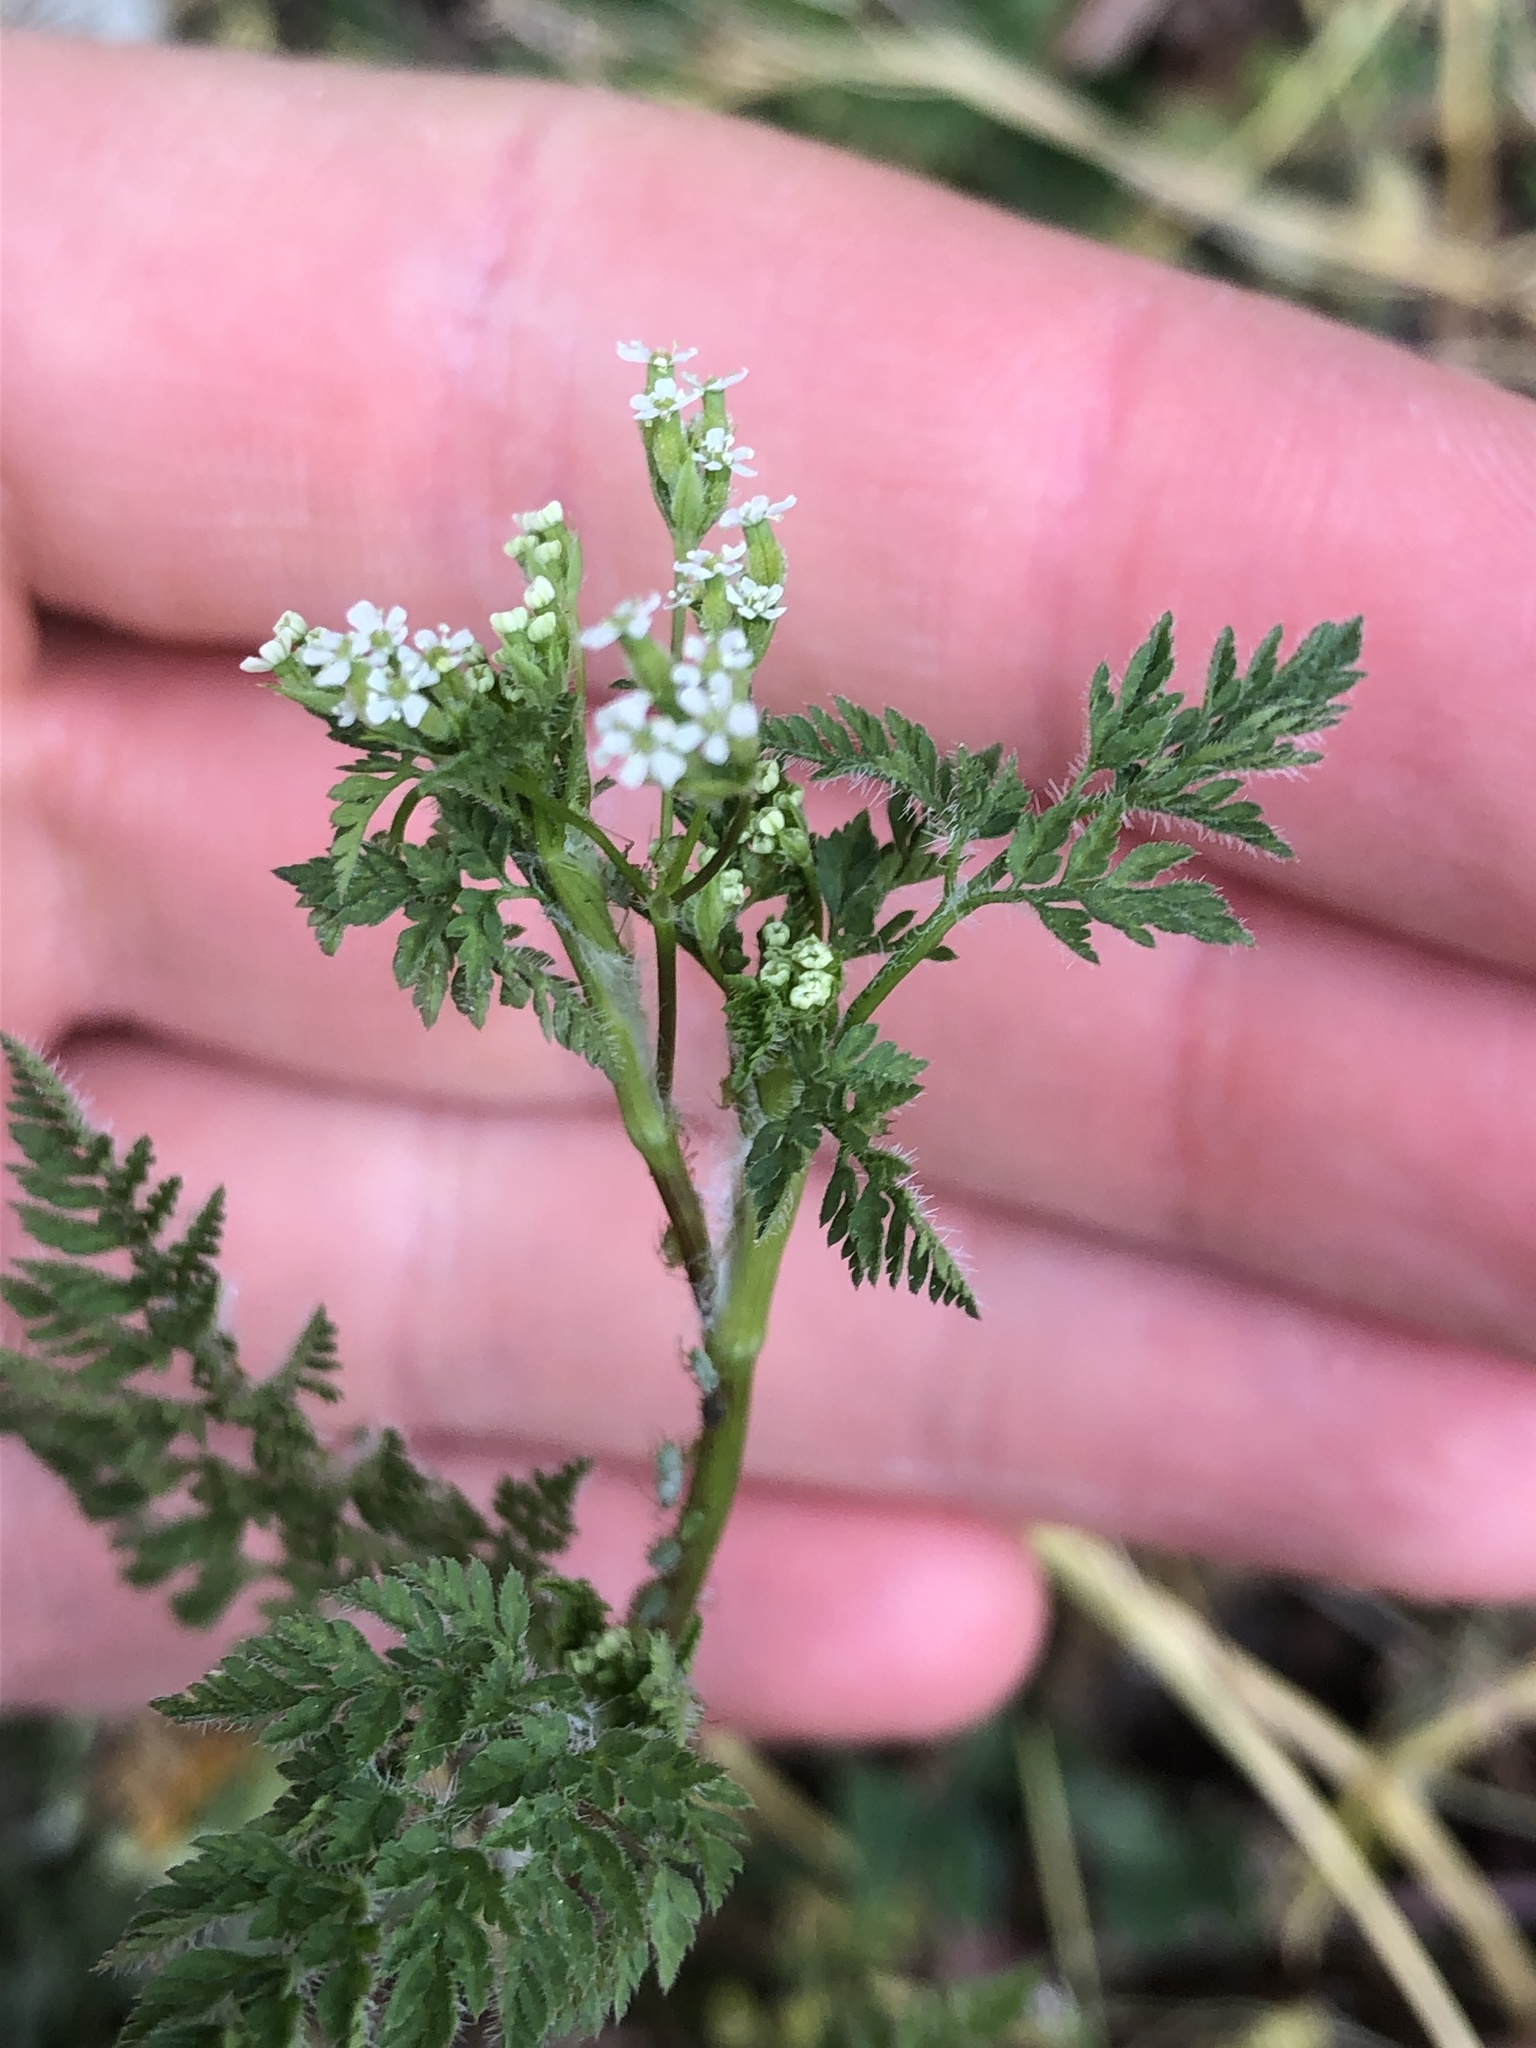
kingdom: Plantae
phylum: Tracheophyta
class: Magnoliopsida
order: Apiales
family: Apiaceae
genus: Anthriscus
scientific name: Anthriscus caucalis
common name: Bur chervil
